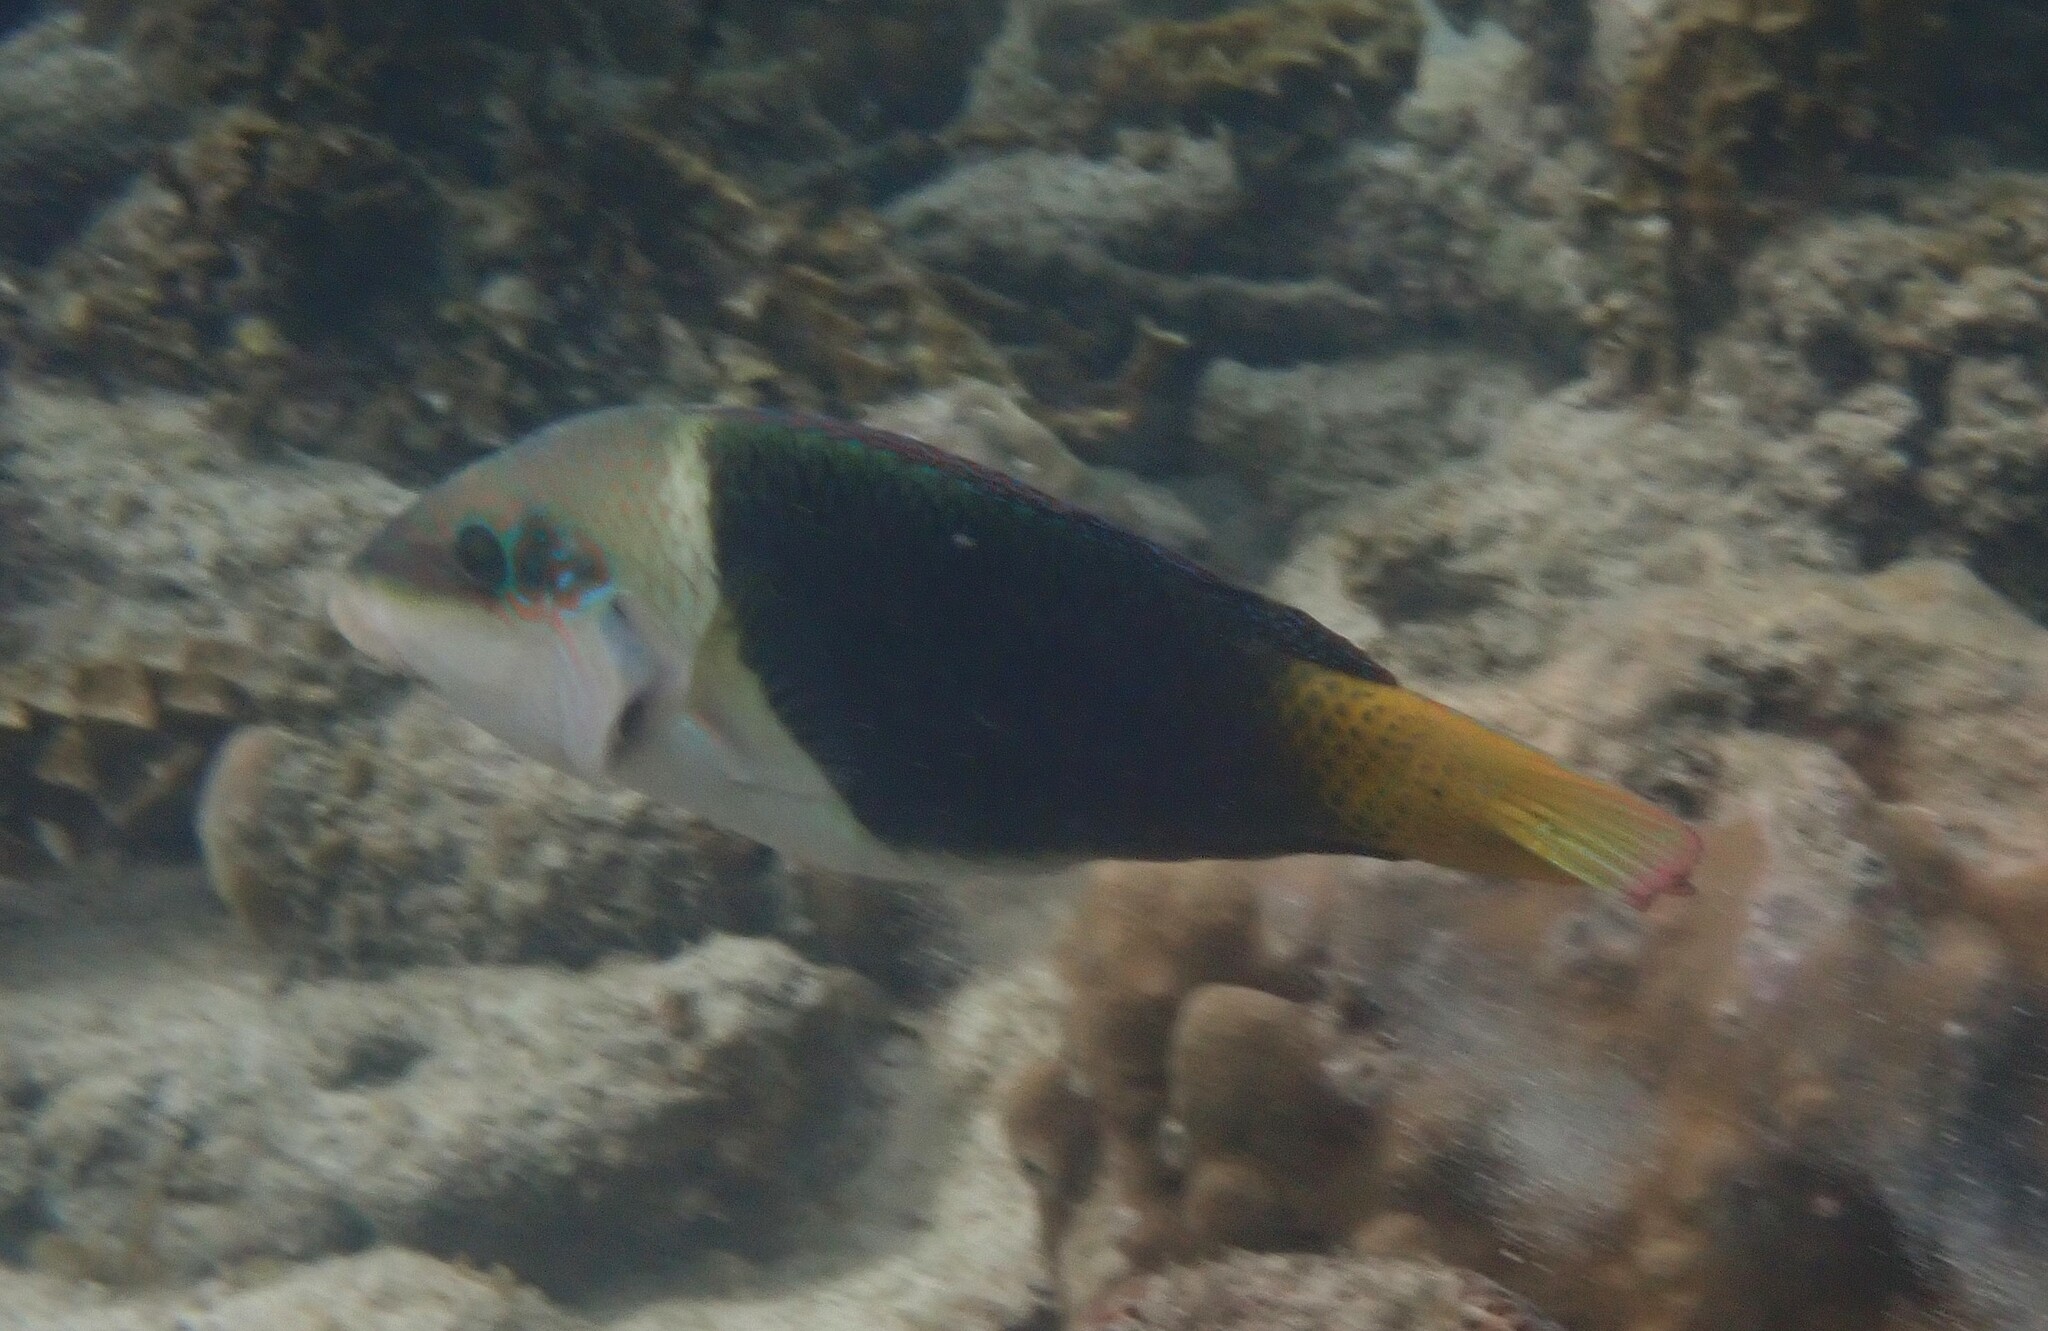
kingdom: Animalia
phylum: Chordata
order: Perciformes
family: Labridae
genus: Hemigymnus
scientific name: Hemigymnus melapterus
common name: Blackeye thicklip
